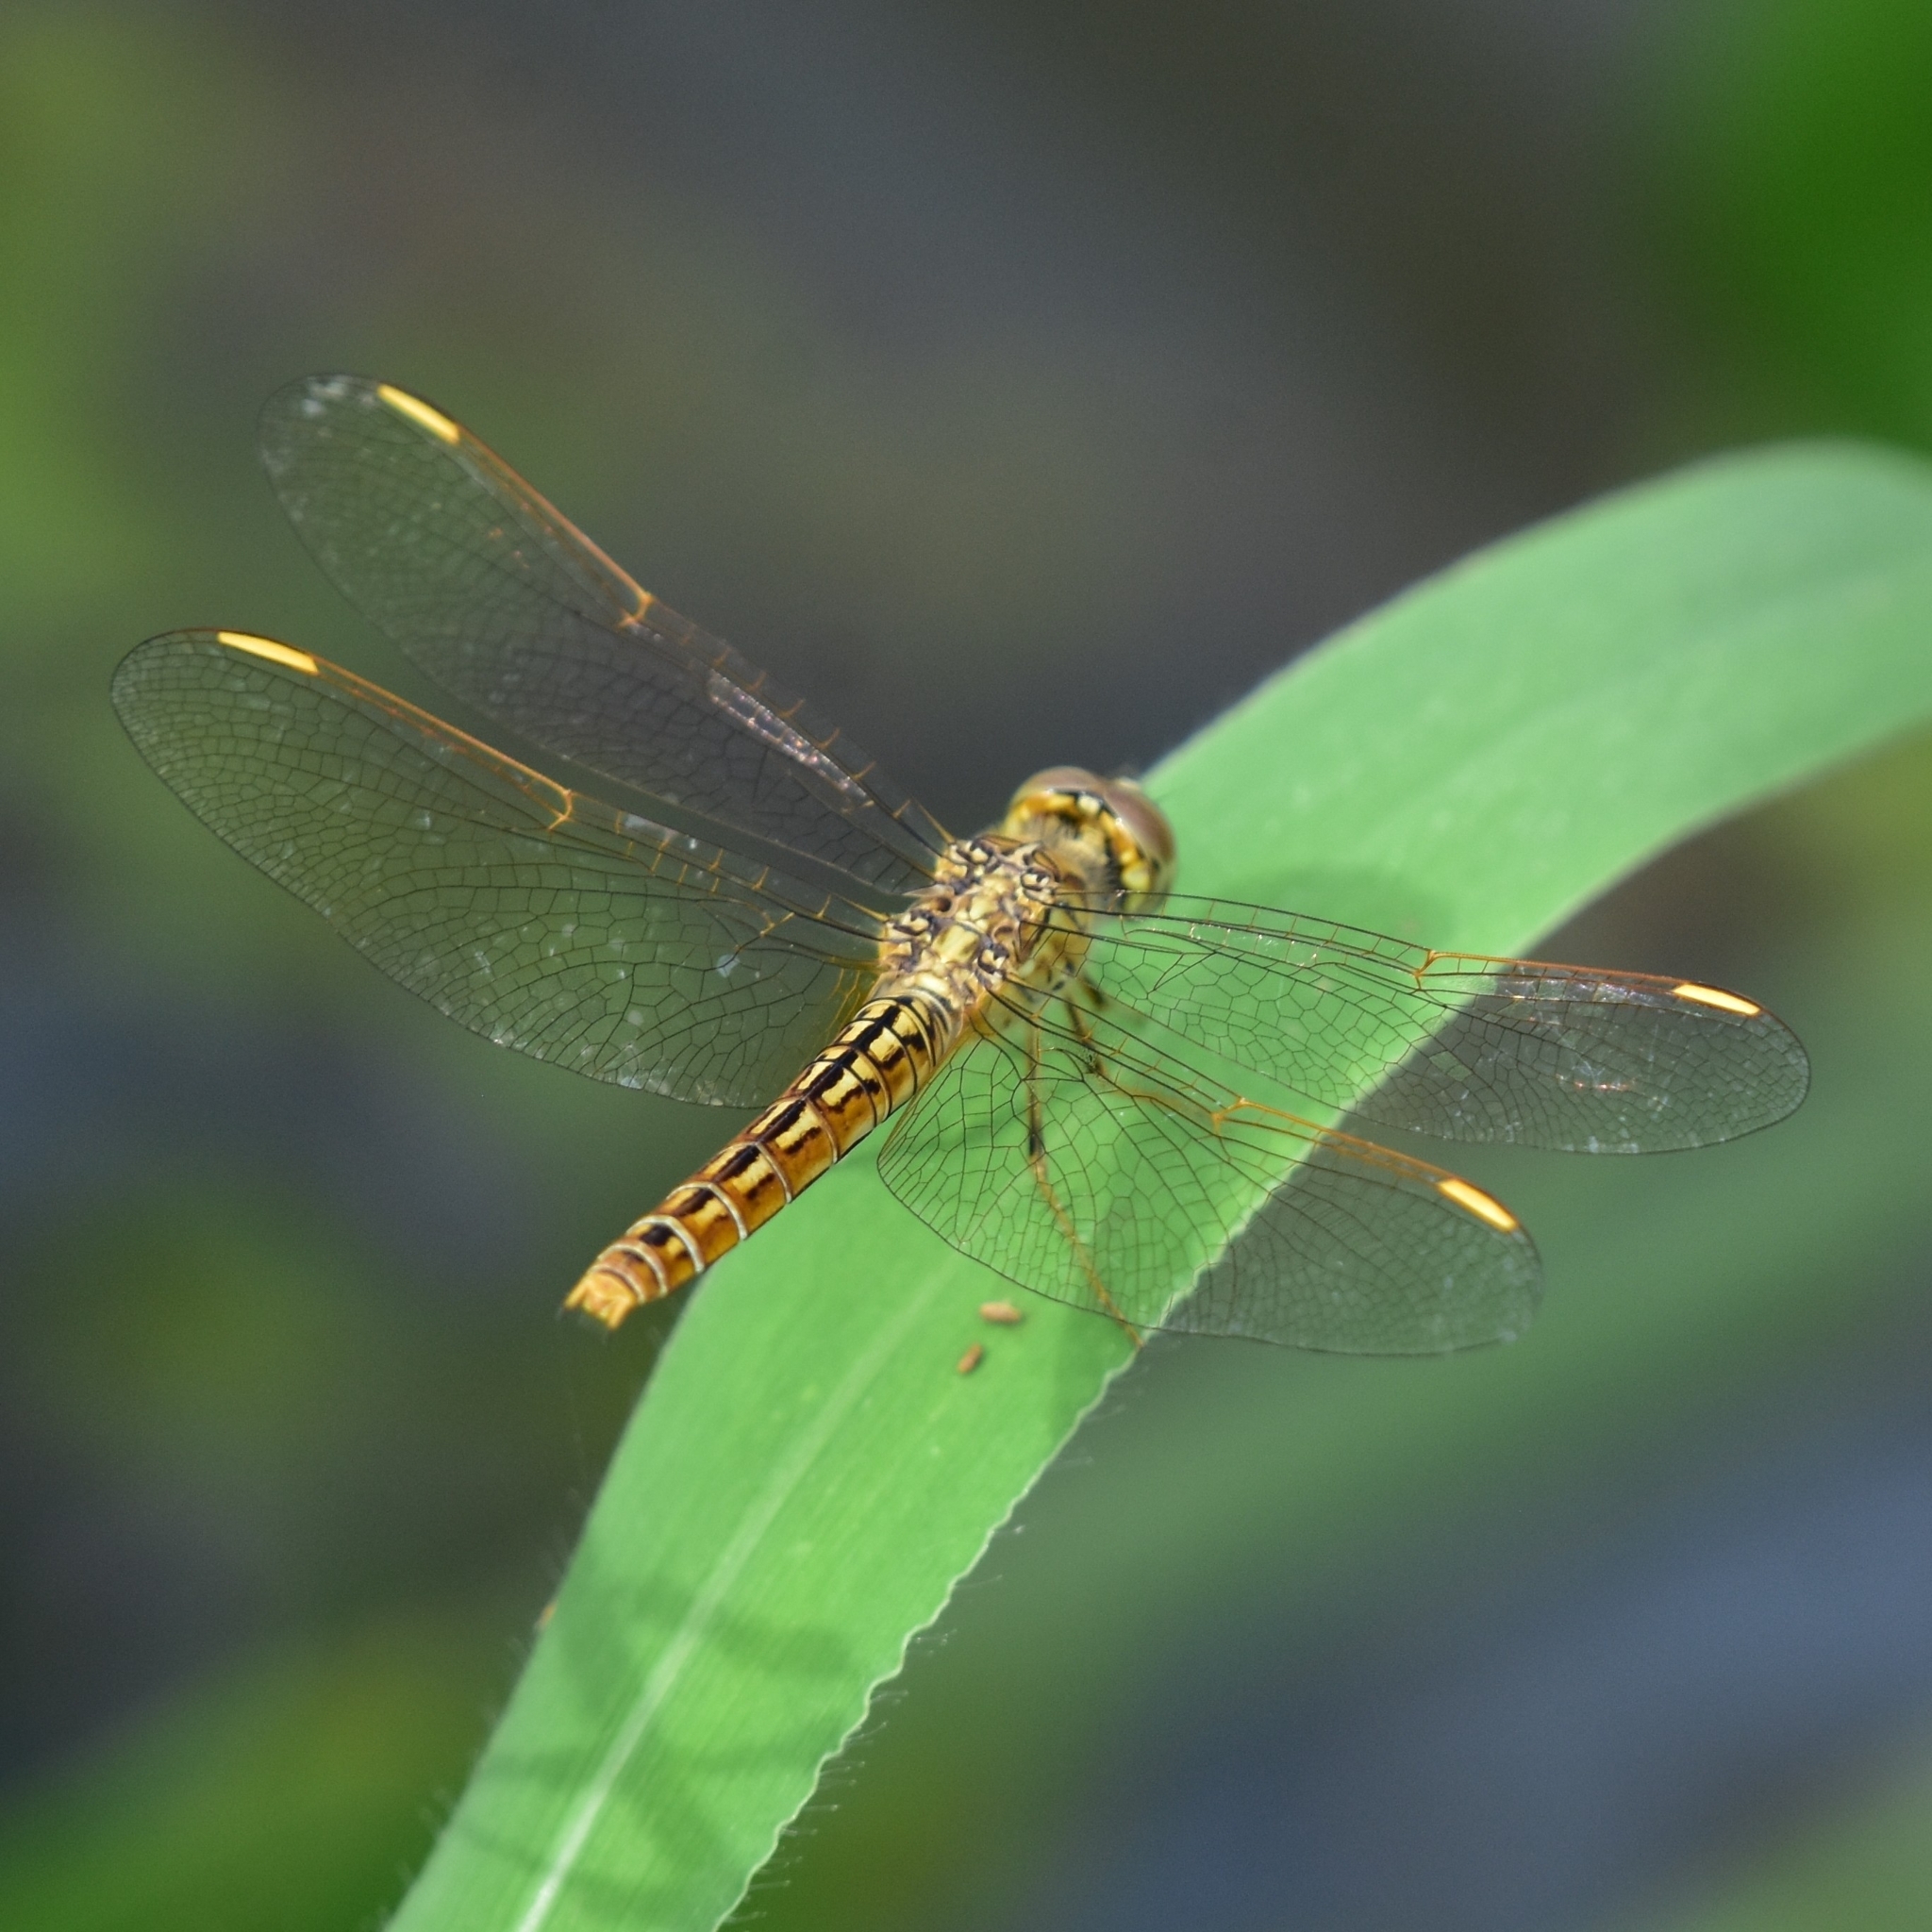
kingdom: Animalia
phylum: Arthropoda
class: Insecta
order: Odonata
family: Libellulidae
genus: Brachythemis
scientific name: Brachythemis contaminata
